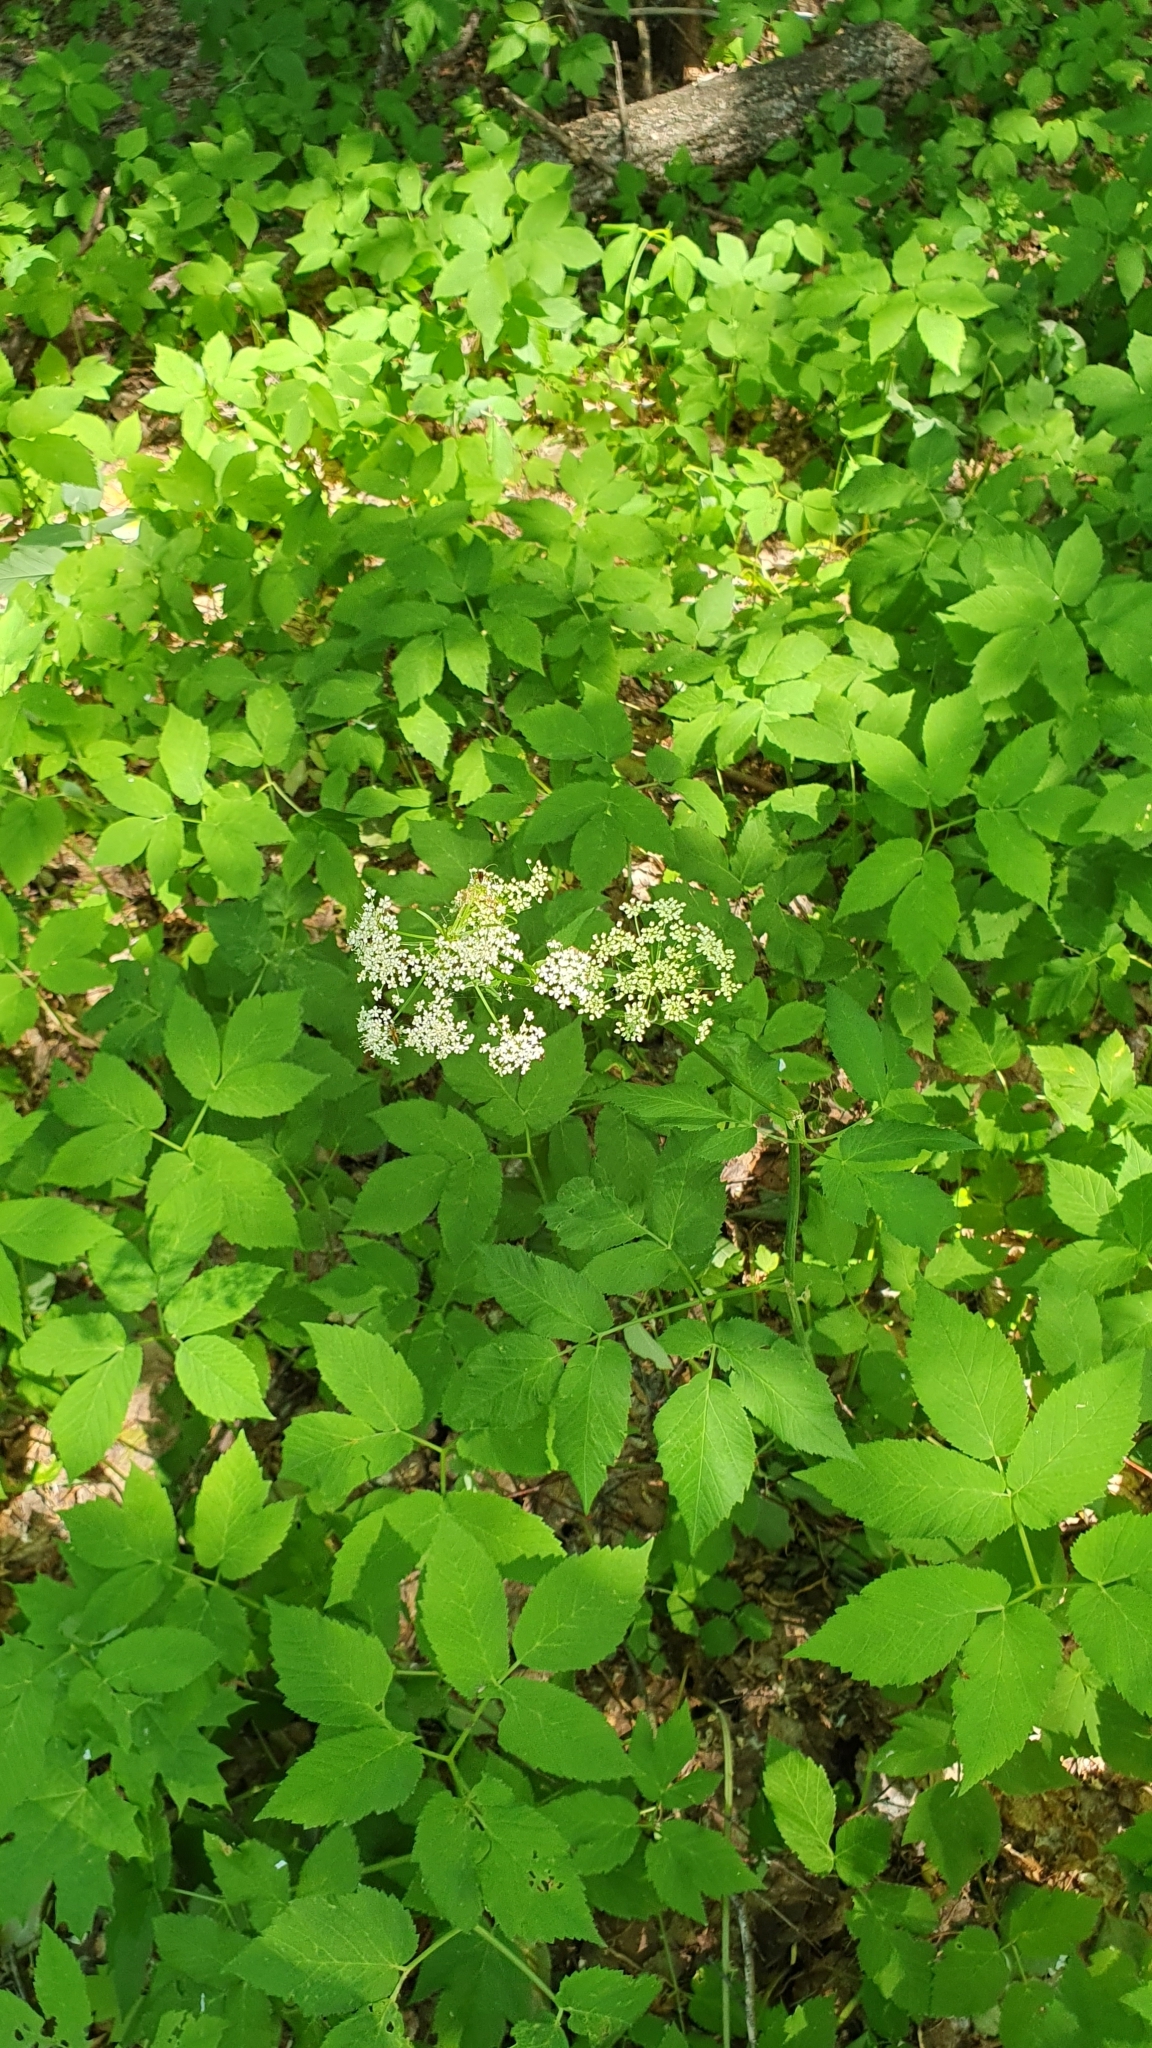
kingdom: Plantae
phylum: Tracheophyta
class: Magnoliopsida
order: Apiales
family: Apiaceae
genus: Aegopodium
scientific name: Aegopodium podagraria
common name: Ground-elder
